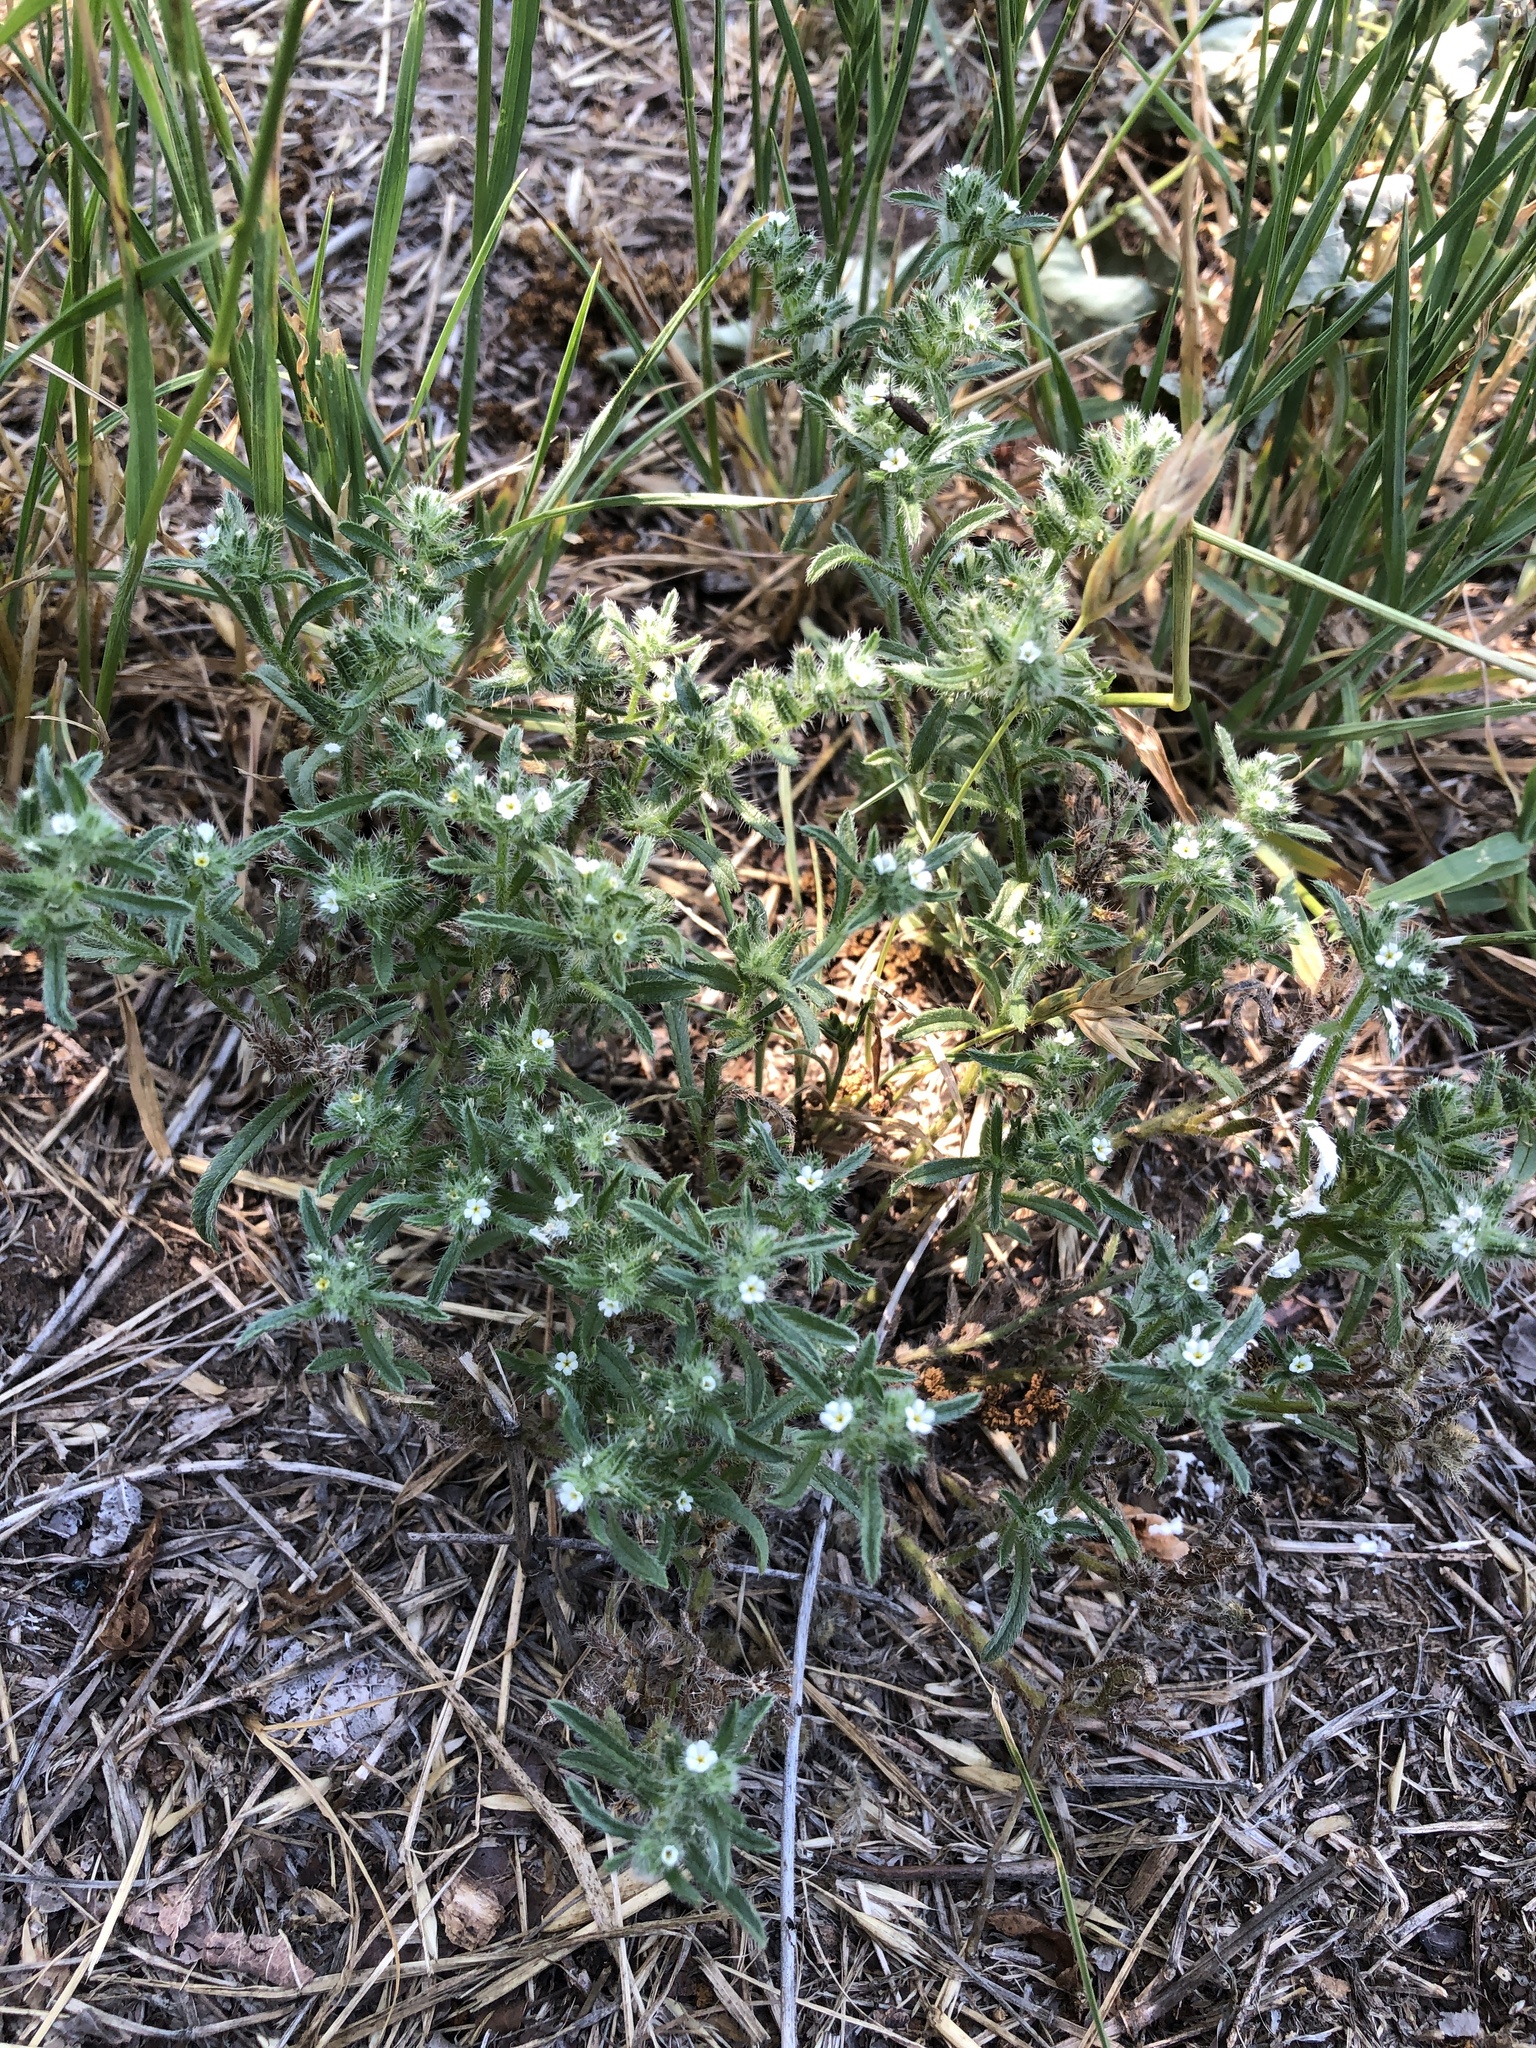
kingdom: Plantae
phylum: Tracheophyta
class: Magnoliopsida
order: Boraginales
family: Boraginaceae
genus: Cryptantha
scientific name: Cryptantha minima
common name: Little cat's-eye
